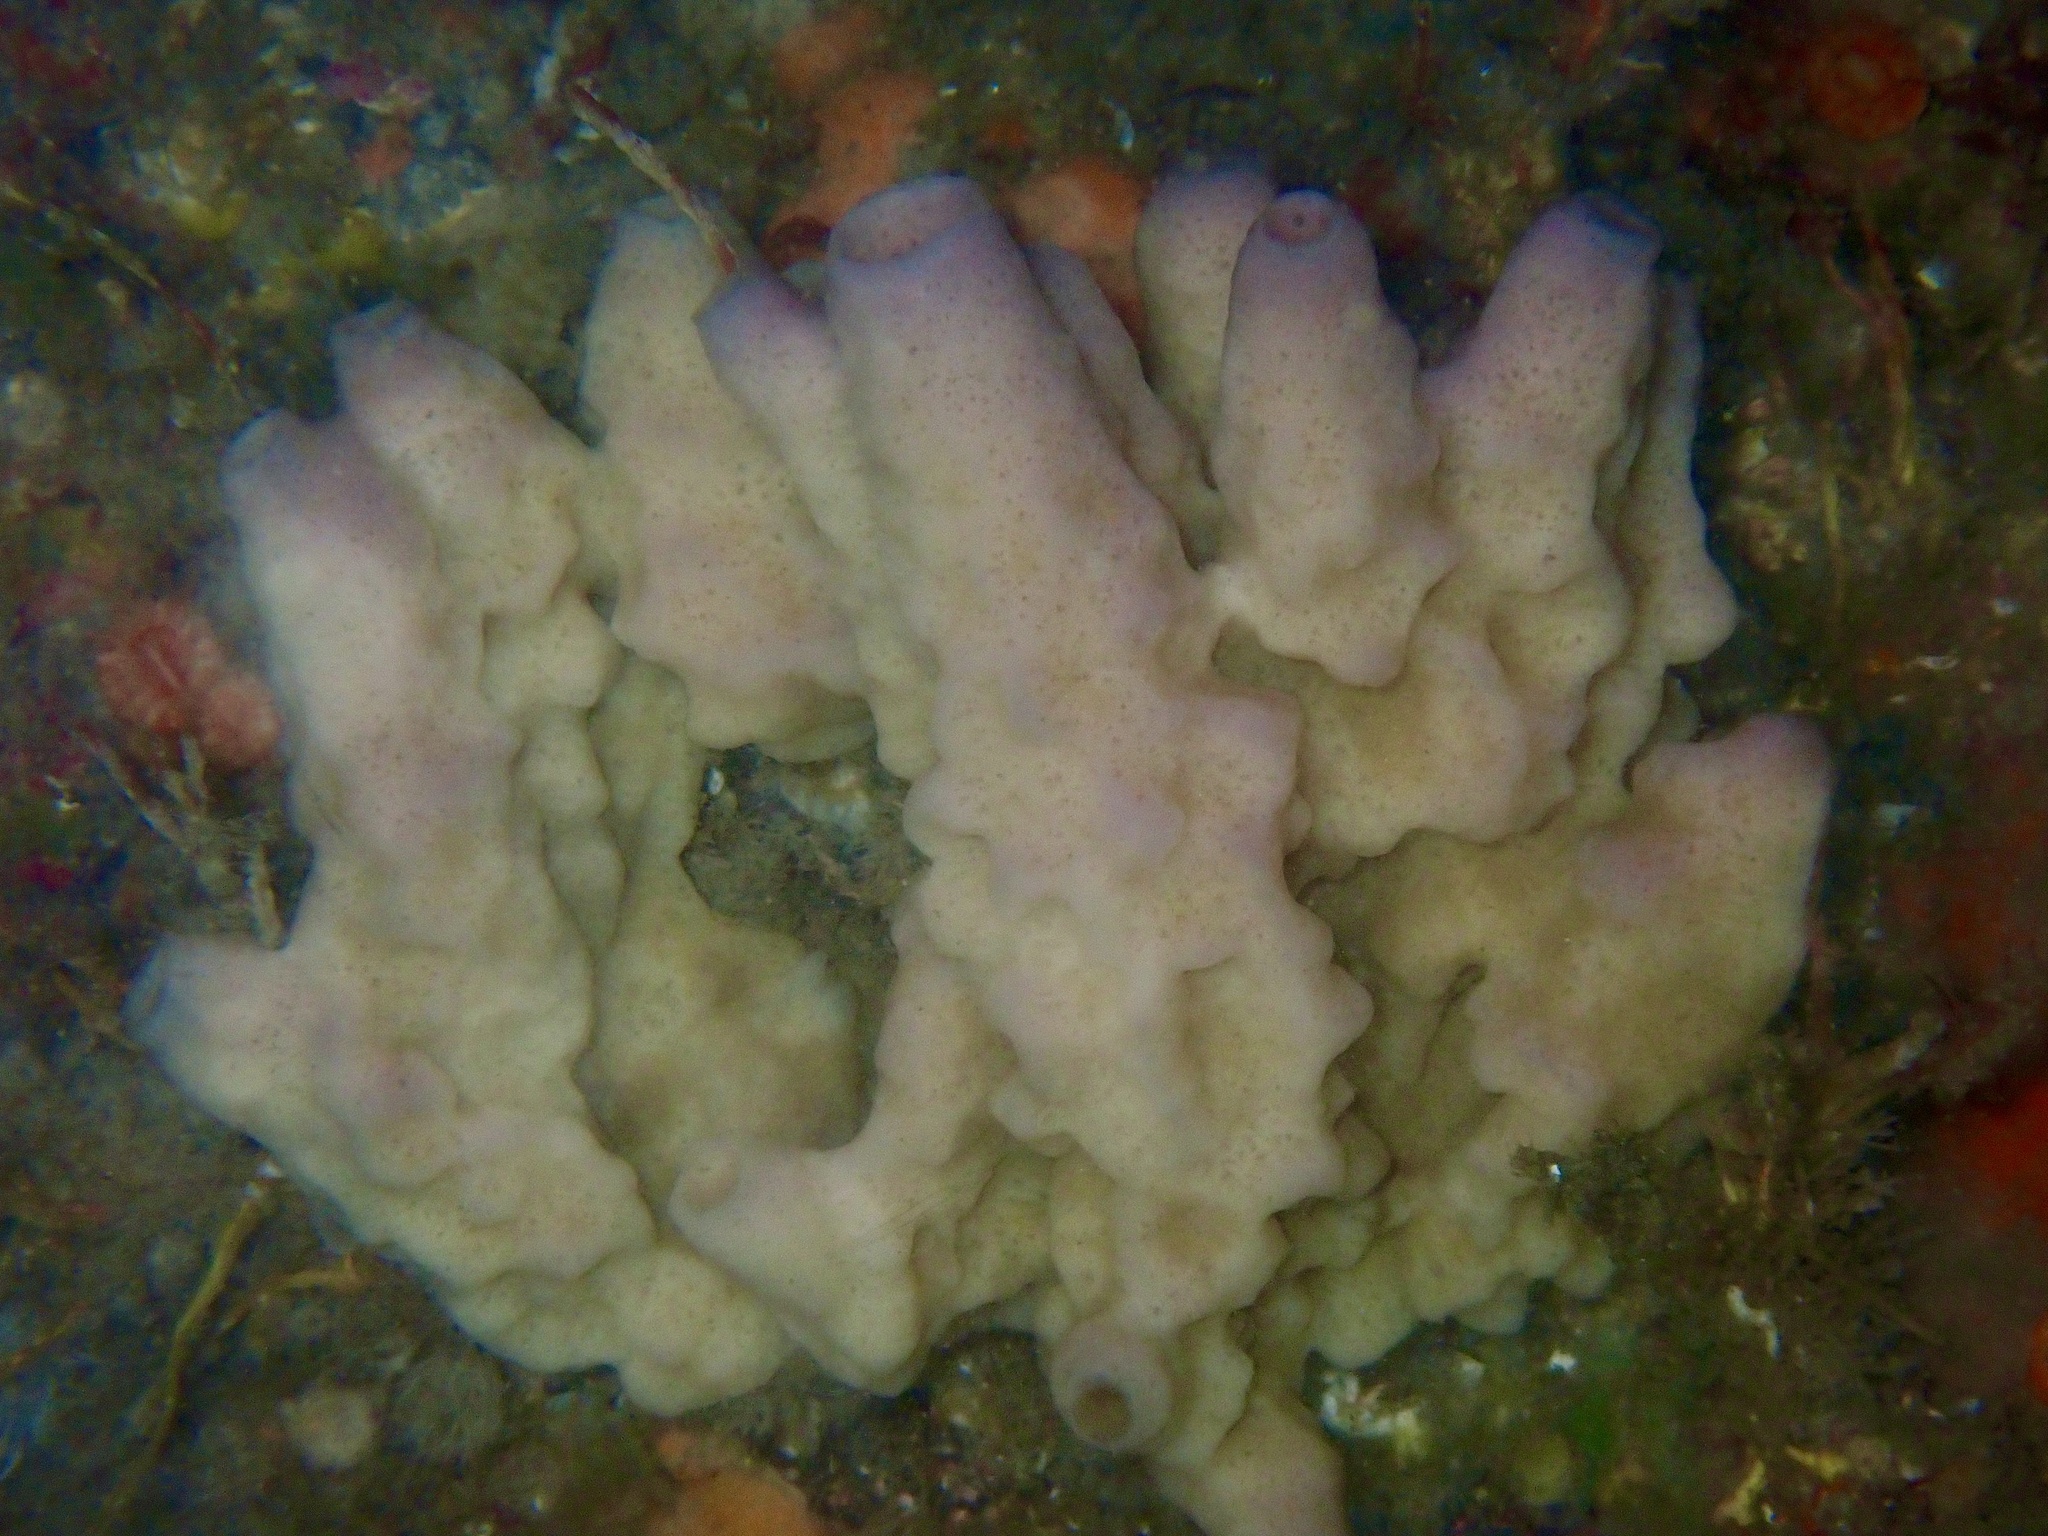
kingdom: Animalia
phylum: Porifera
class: Demospongiae
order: Haplosclerida
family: Chalinidae
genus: Haliclona
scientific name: Haliclona viscosa
